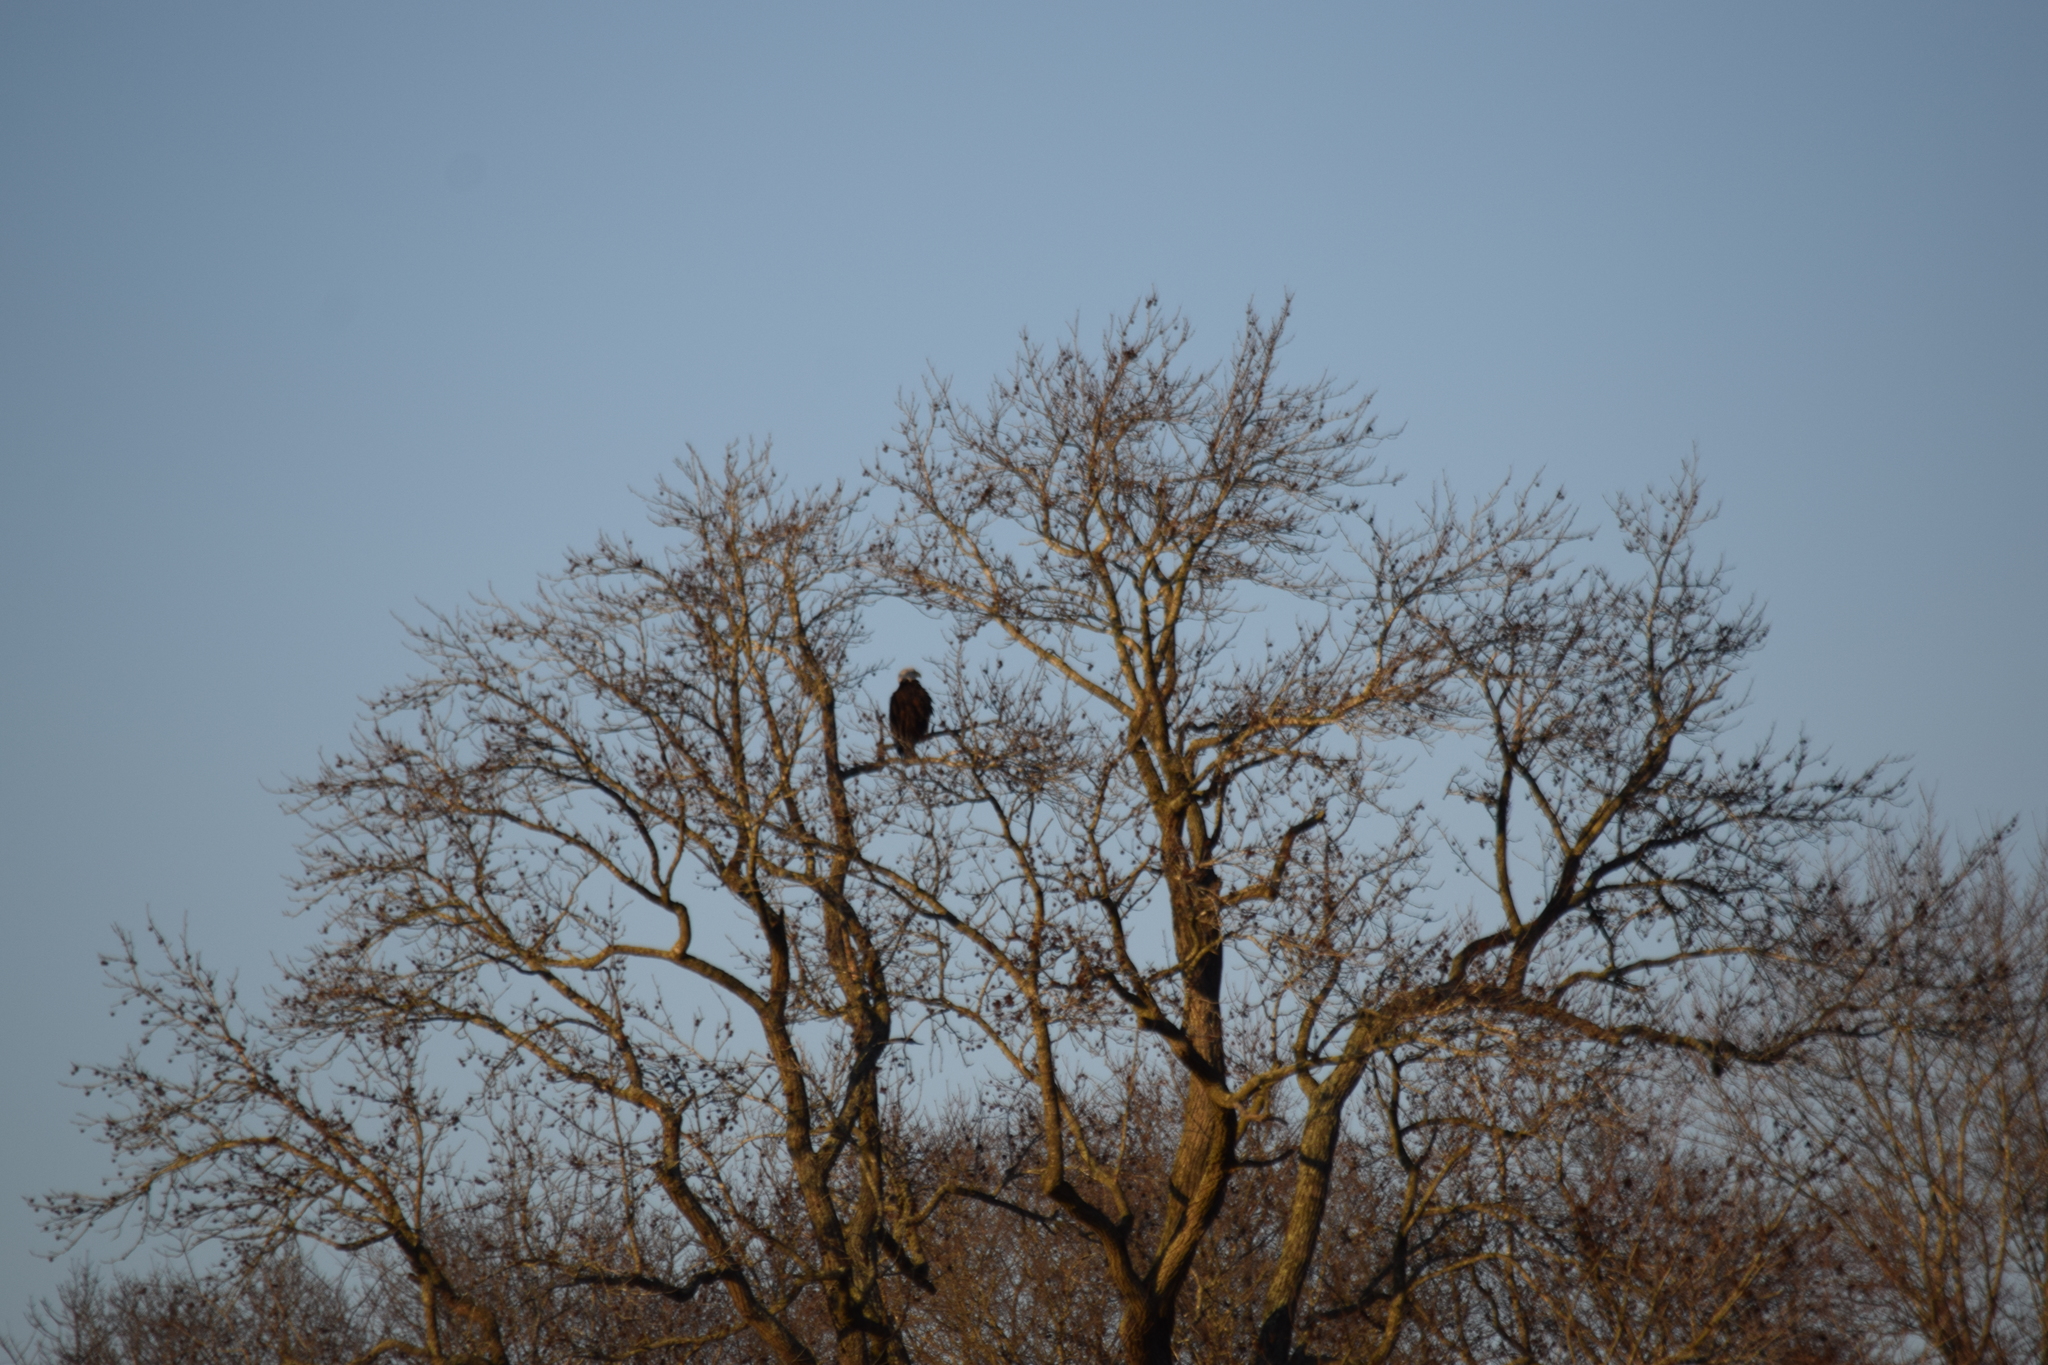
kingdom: Animalia
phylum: Chordata
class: Aves
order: Accipitriformes
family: Accipitridae
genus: Haliaeetus
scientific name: Haliaeetus leucocephalus
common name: Bald eagle
